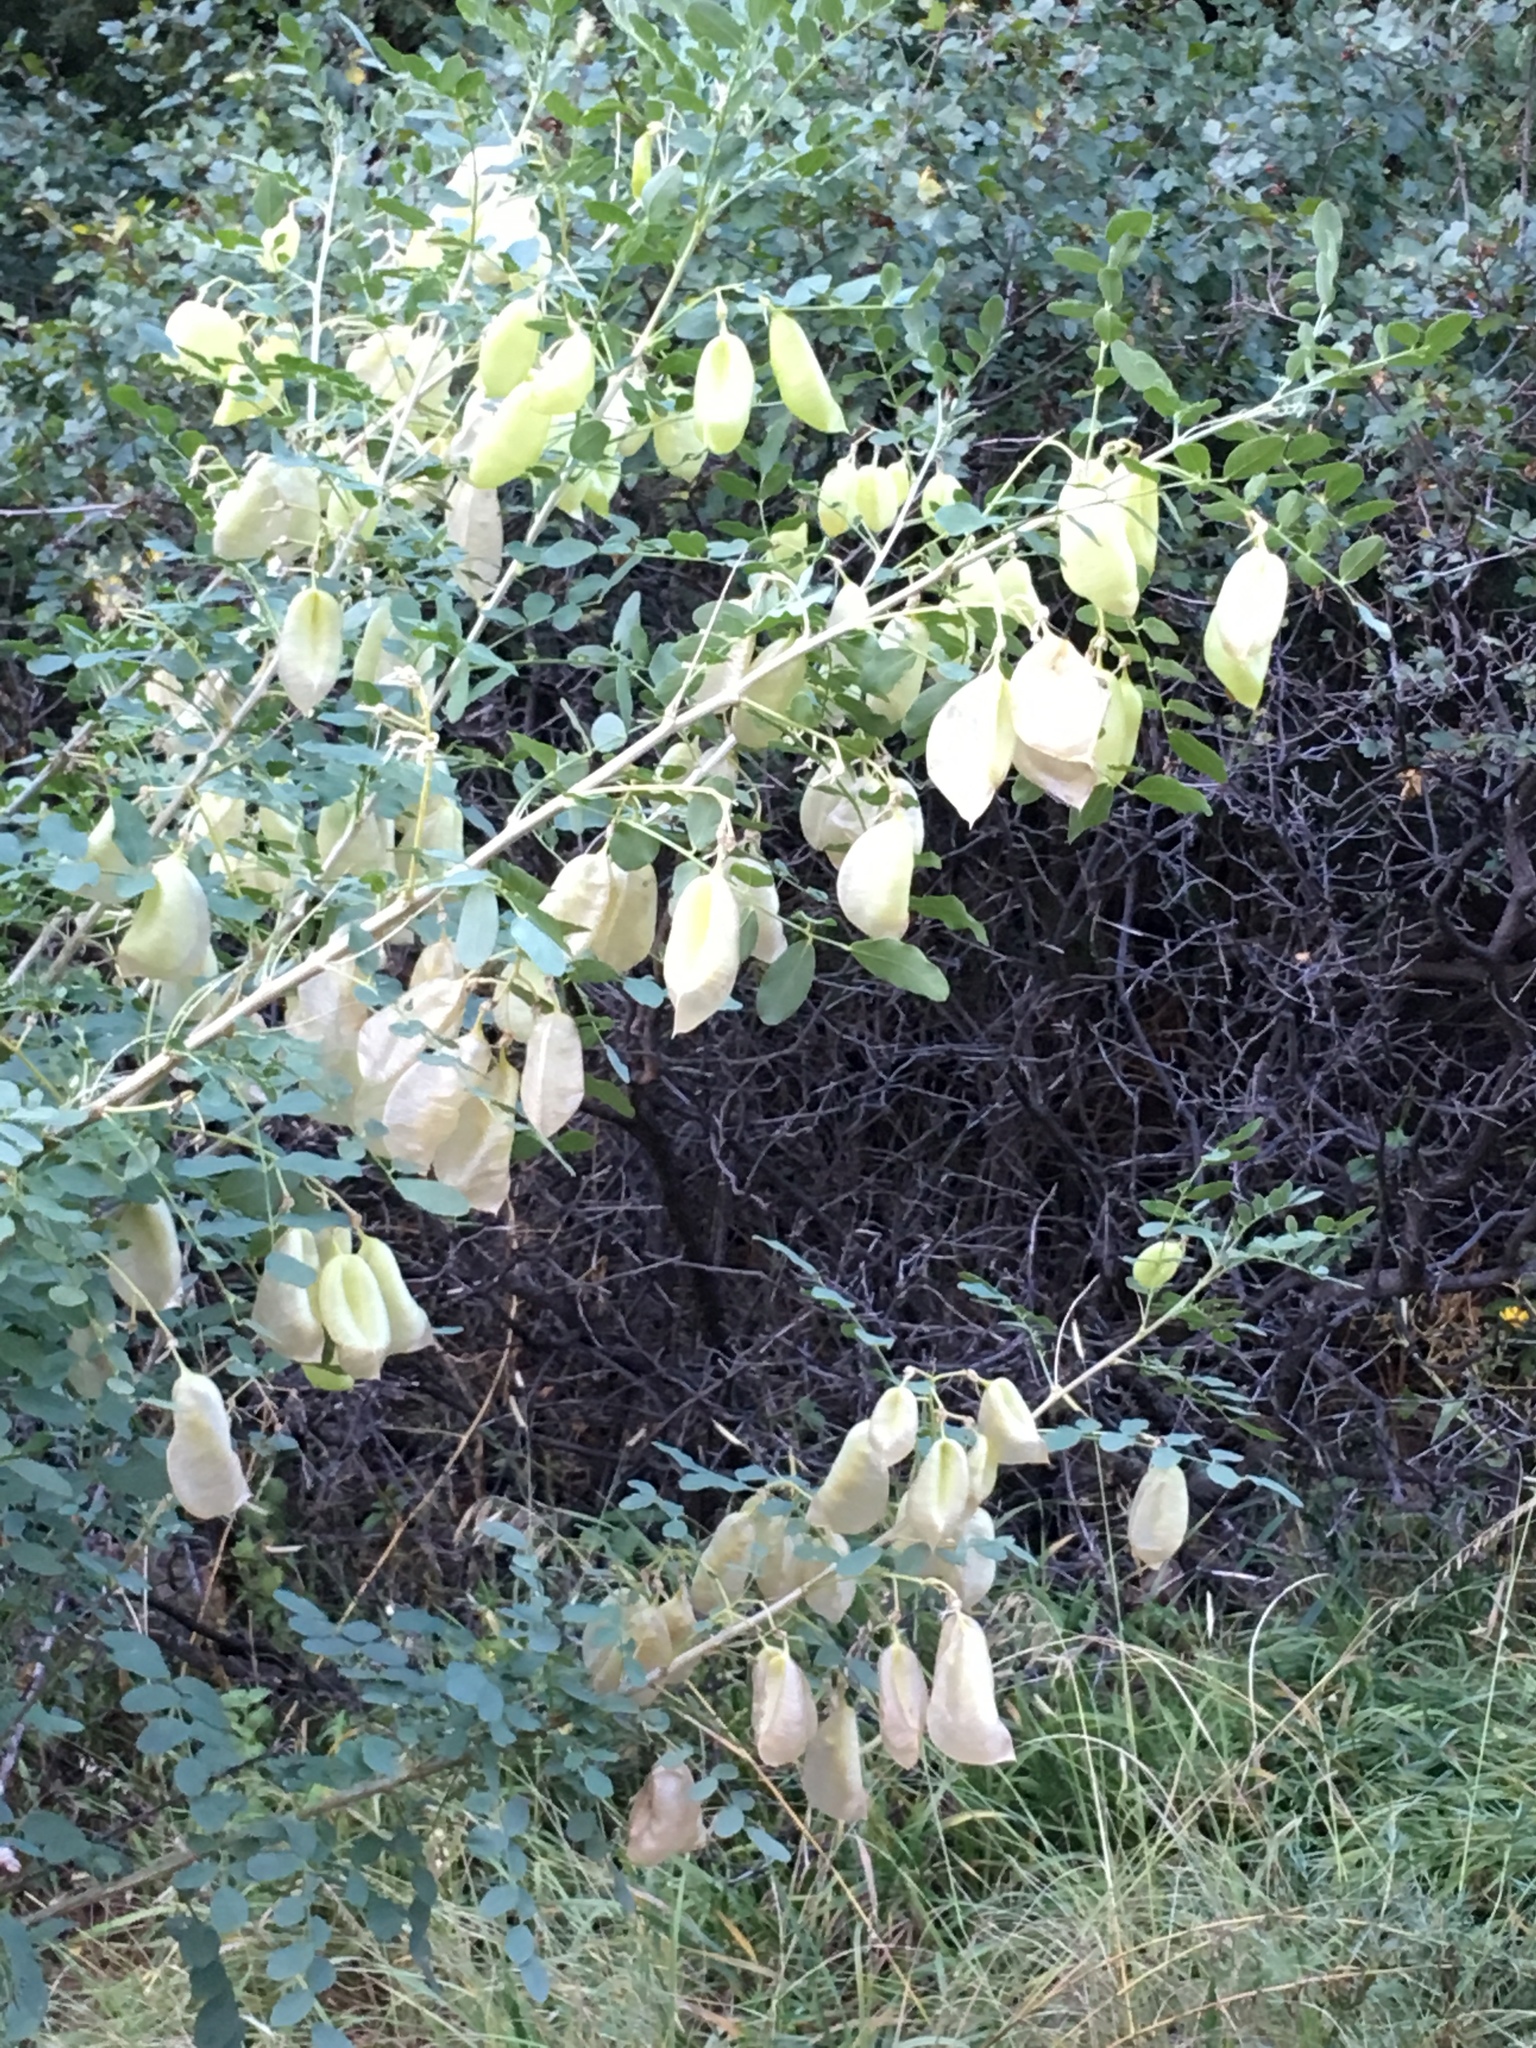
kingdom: Plantae
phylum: Tracheophyta
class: Magnoliopsida
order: Fabales
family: Fabaceae
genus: Colutea
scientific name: Colutea arborescens
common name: Bladder-senna
